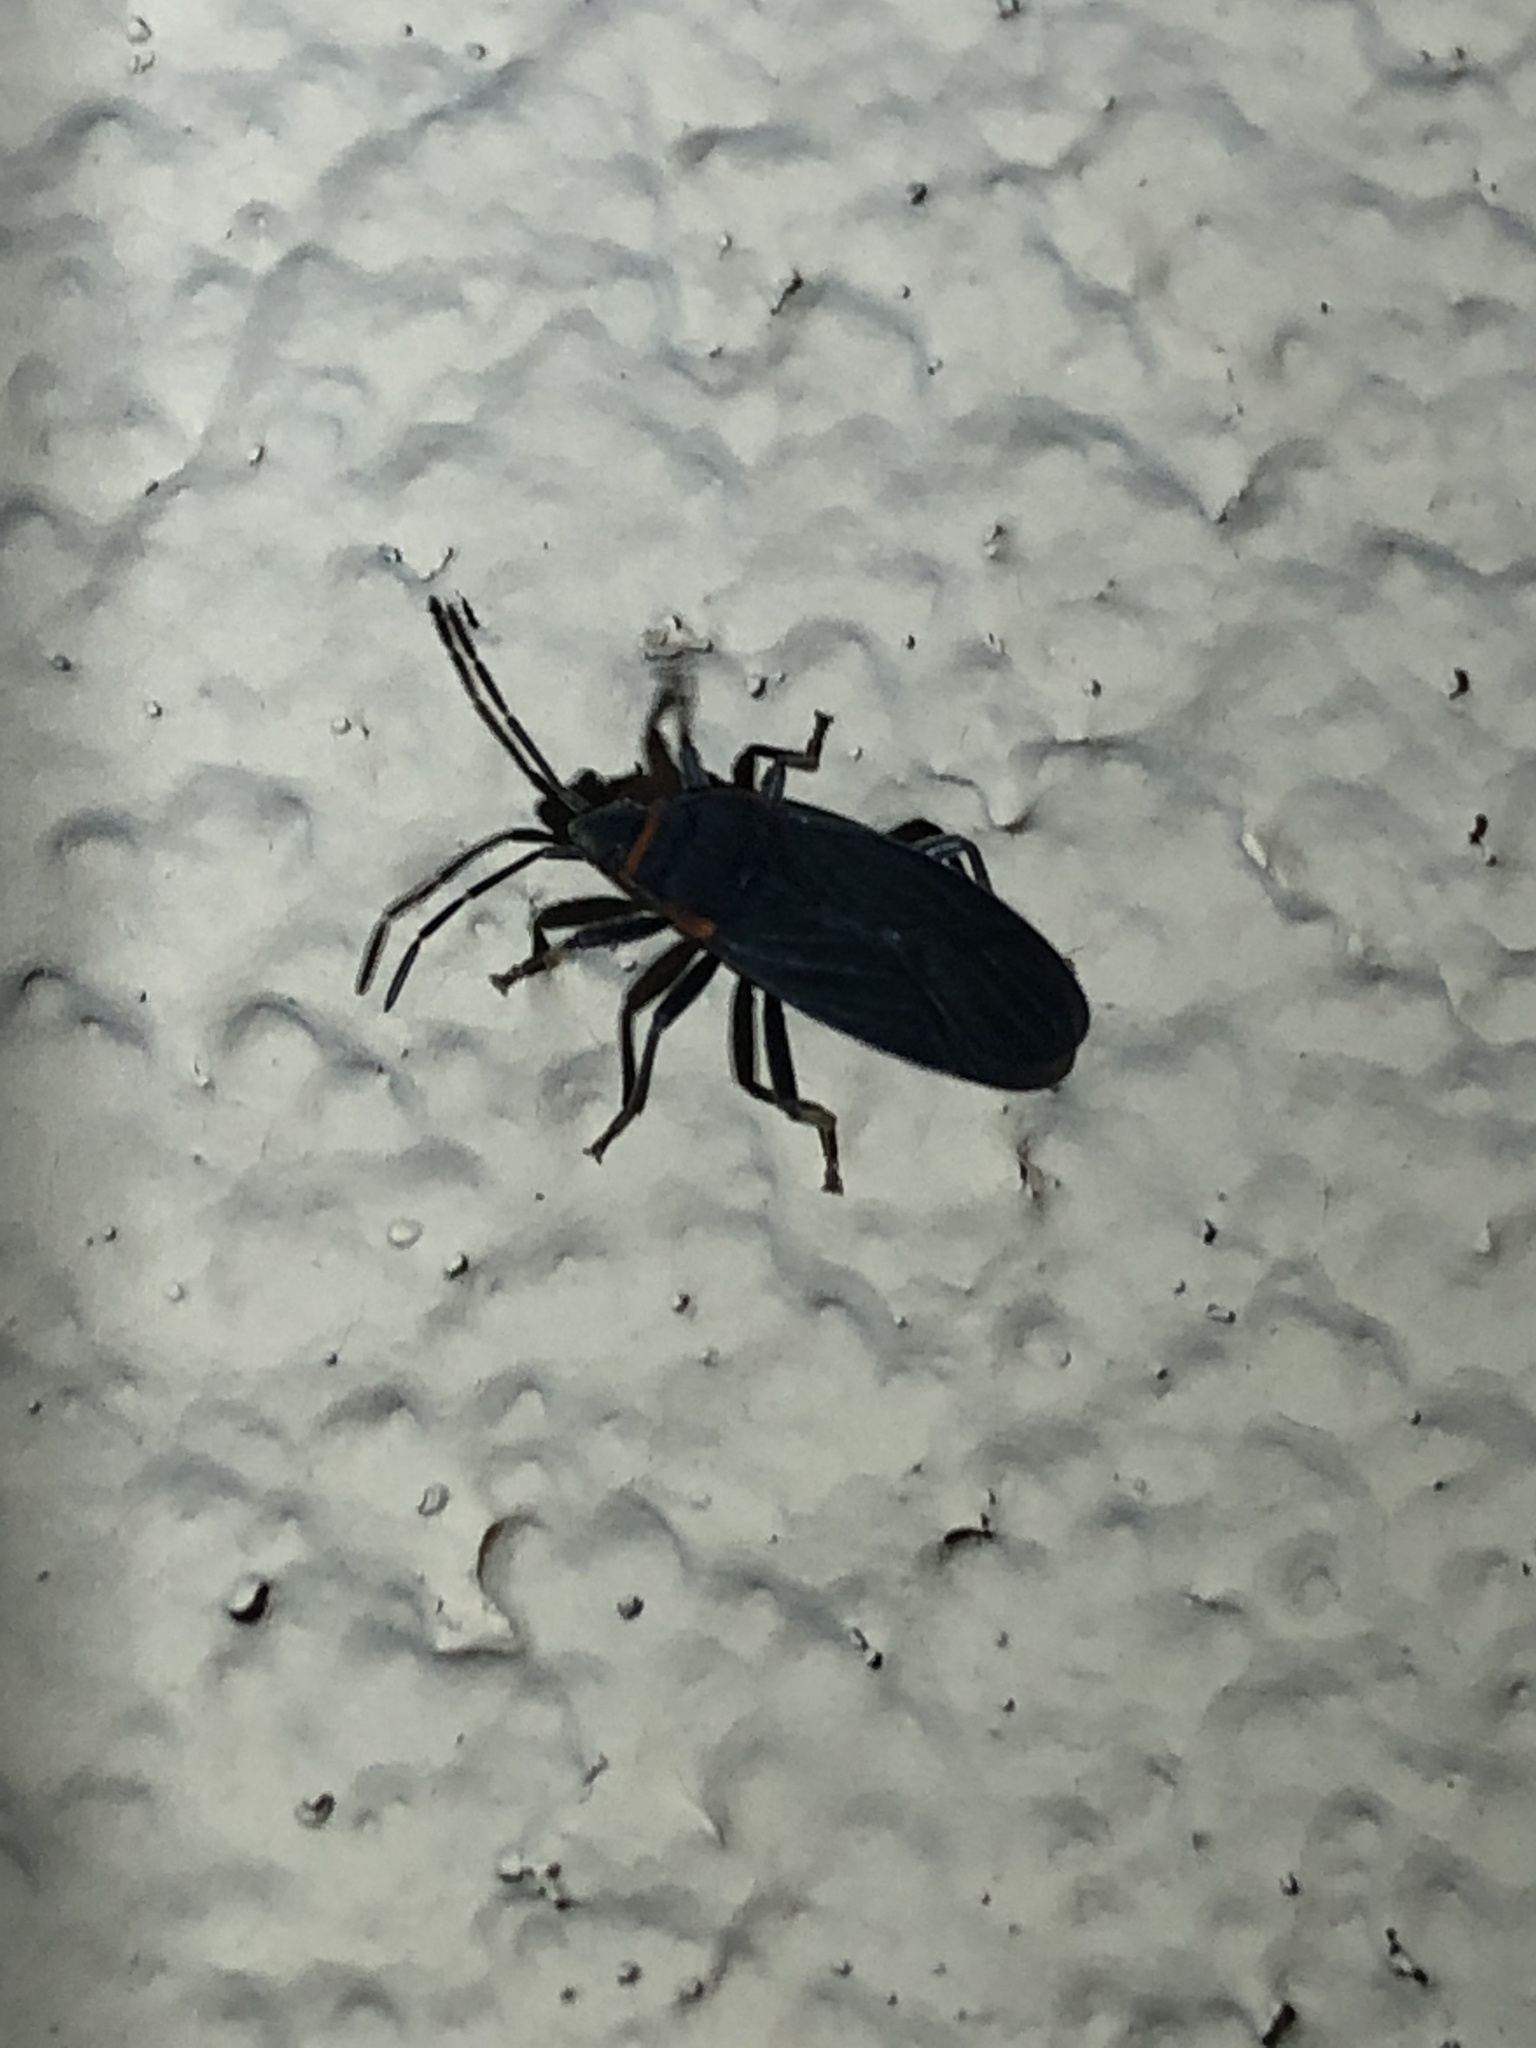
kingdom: Animalia
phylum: Arthropoda
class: Insecta
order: Hemiptera
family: Lygaeidae
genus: Melacoryphus
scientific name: Melacoryphus rubicollis
